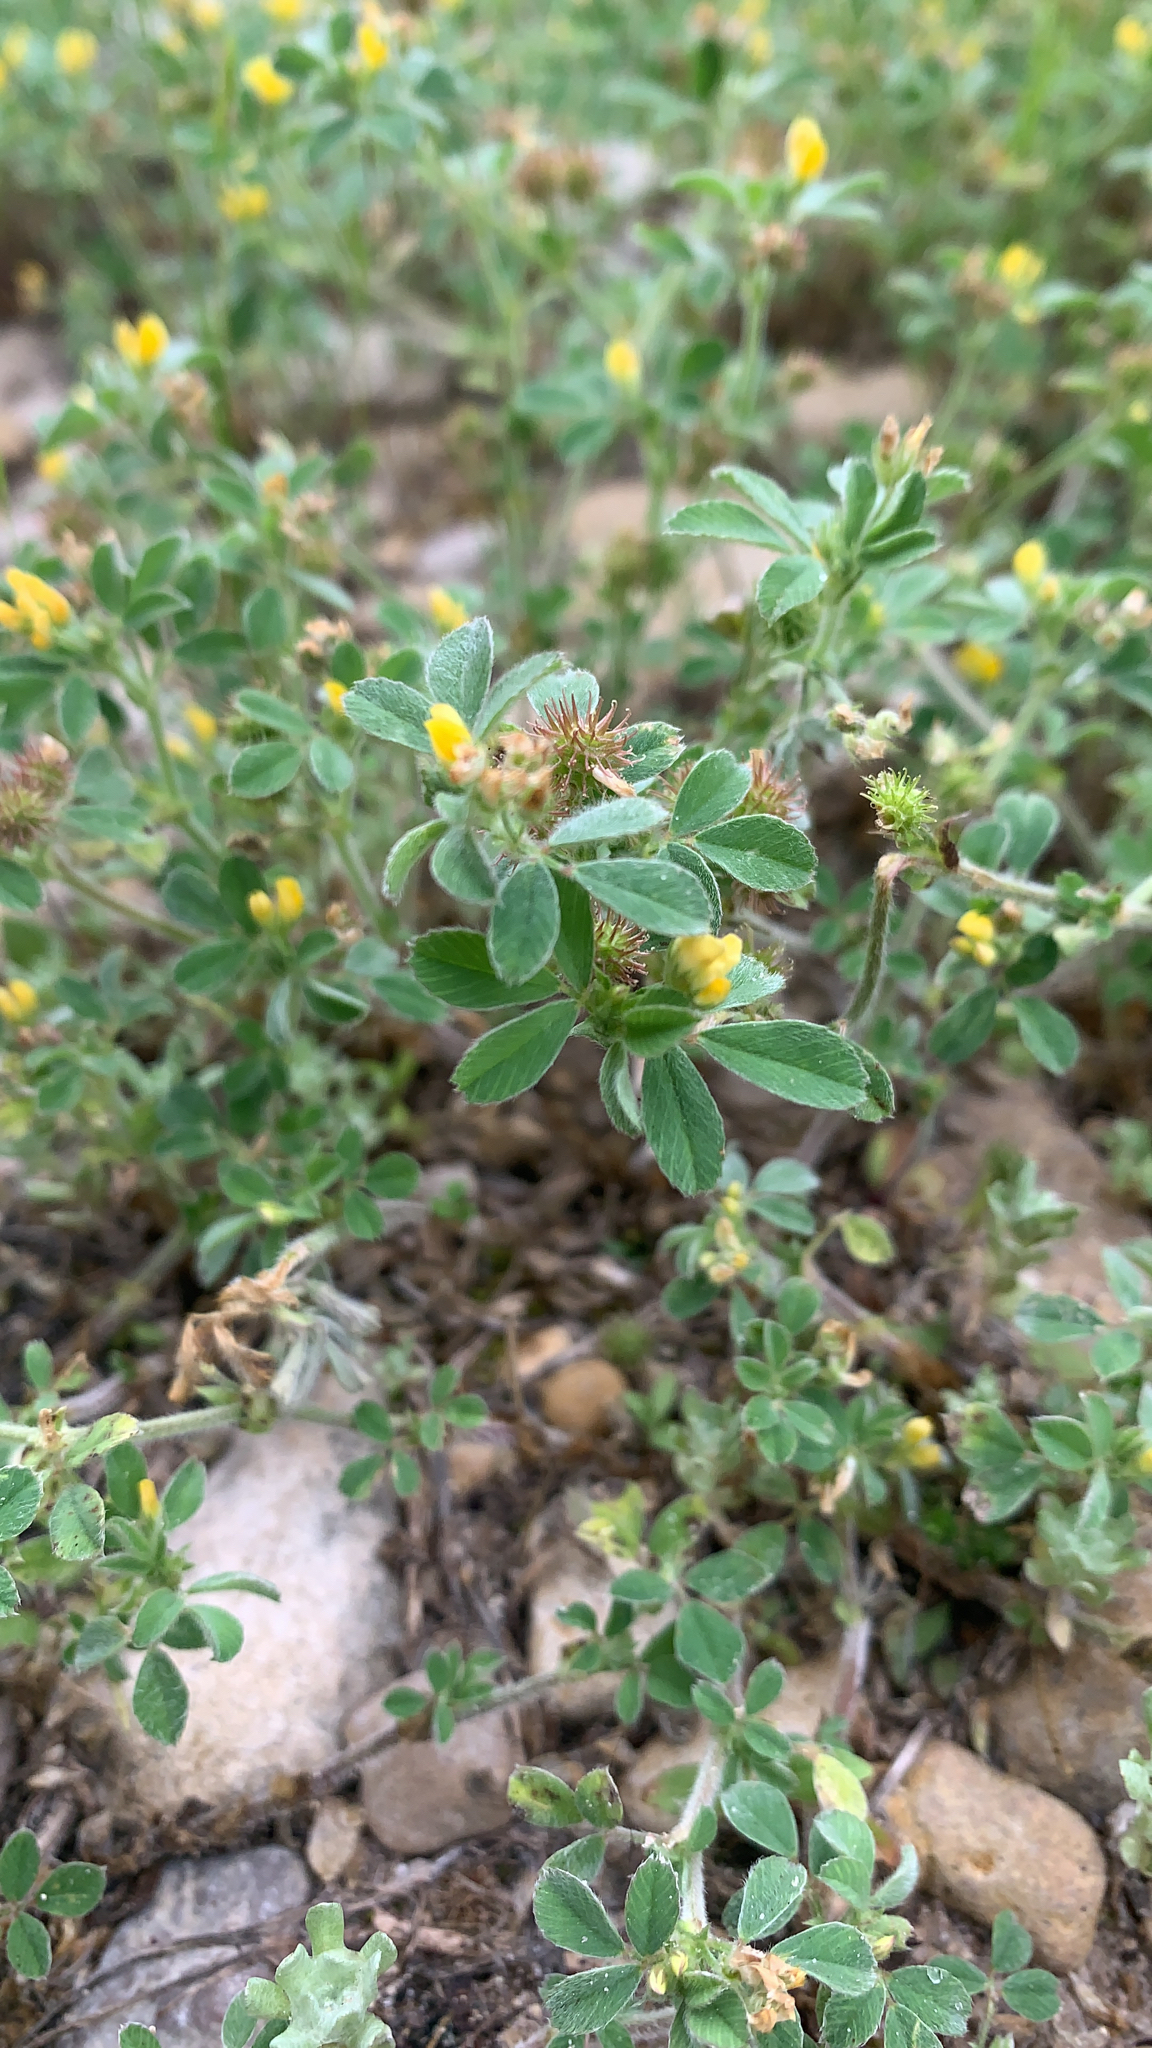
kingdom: Plantae
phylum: Tracheophyta
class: Magnoliopsida
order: Fabales
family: Fabaceae
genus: Medicago
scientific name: Medicago minima
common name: Little bur-clover
